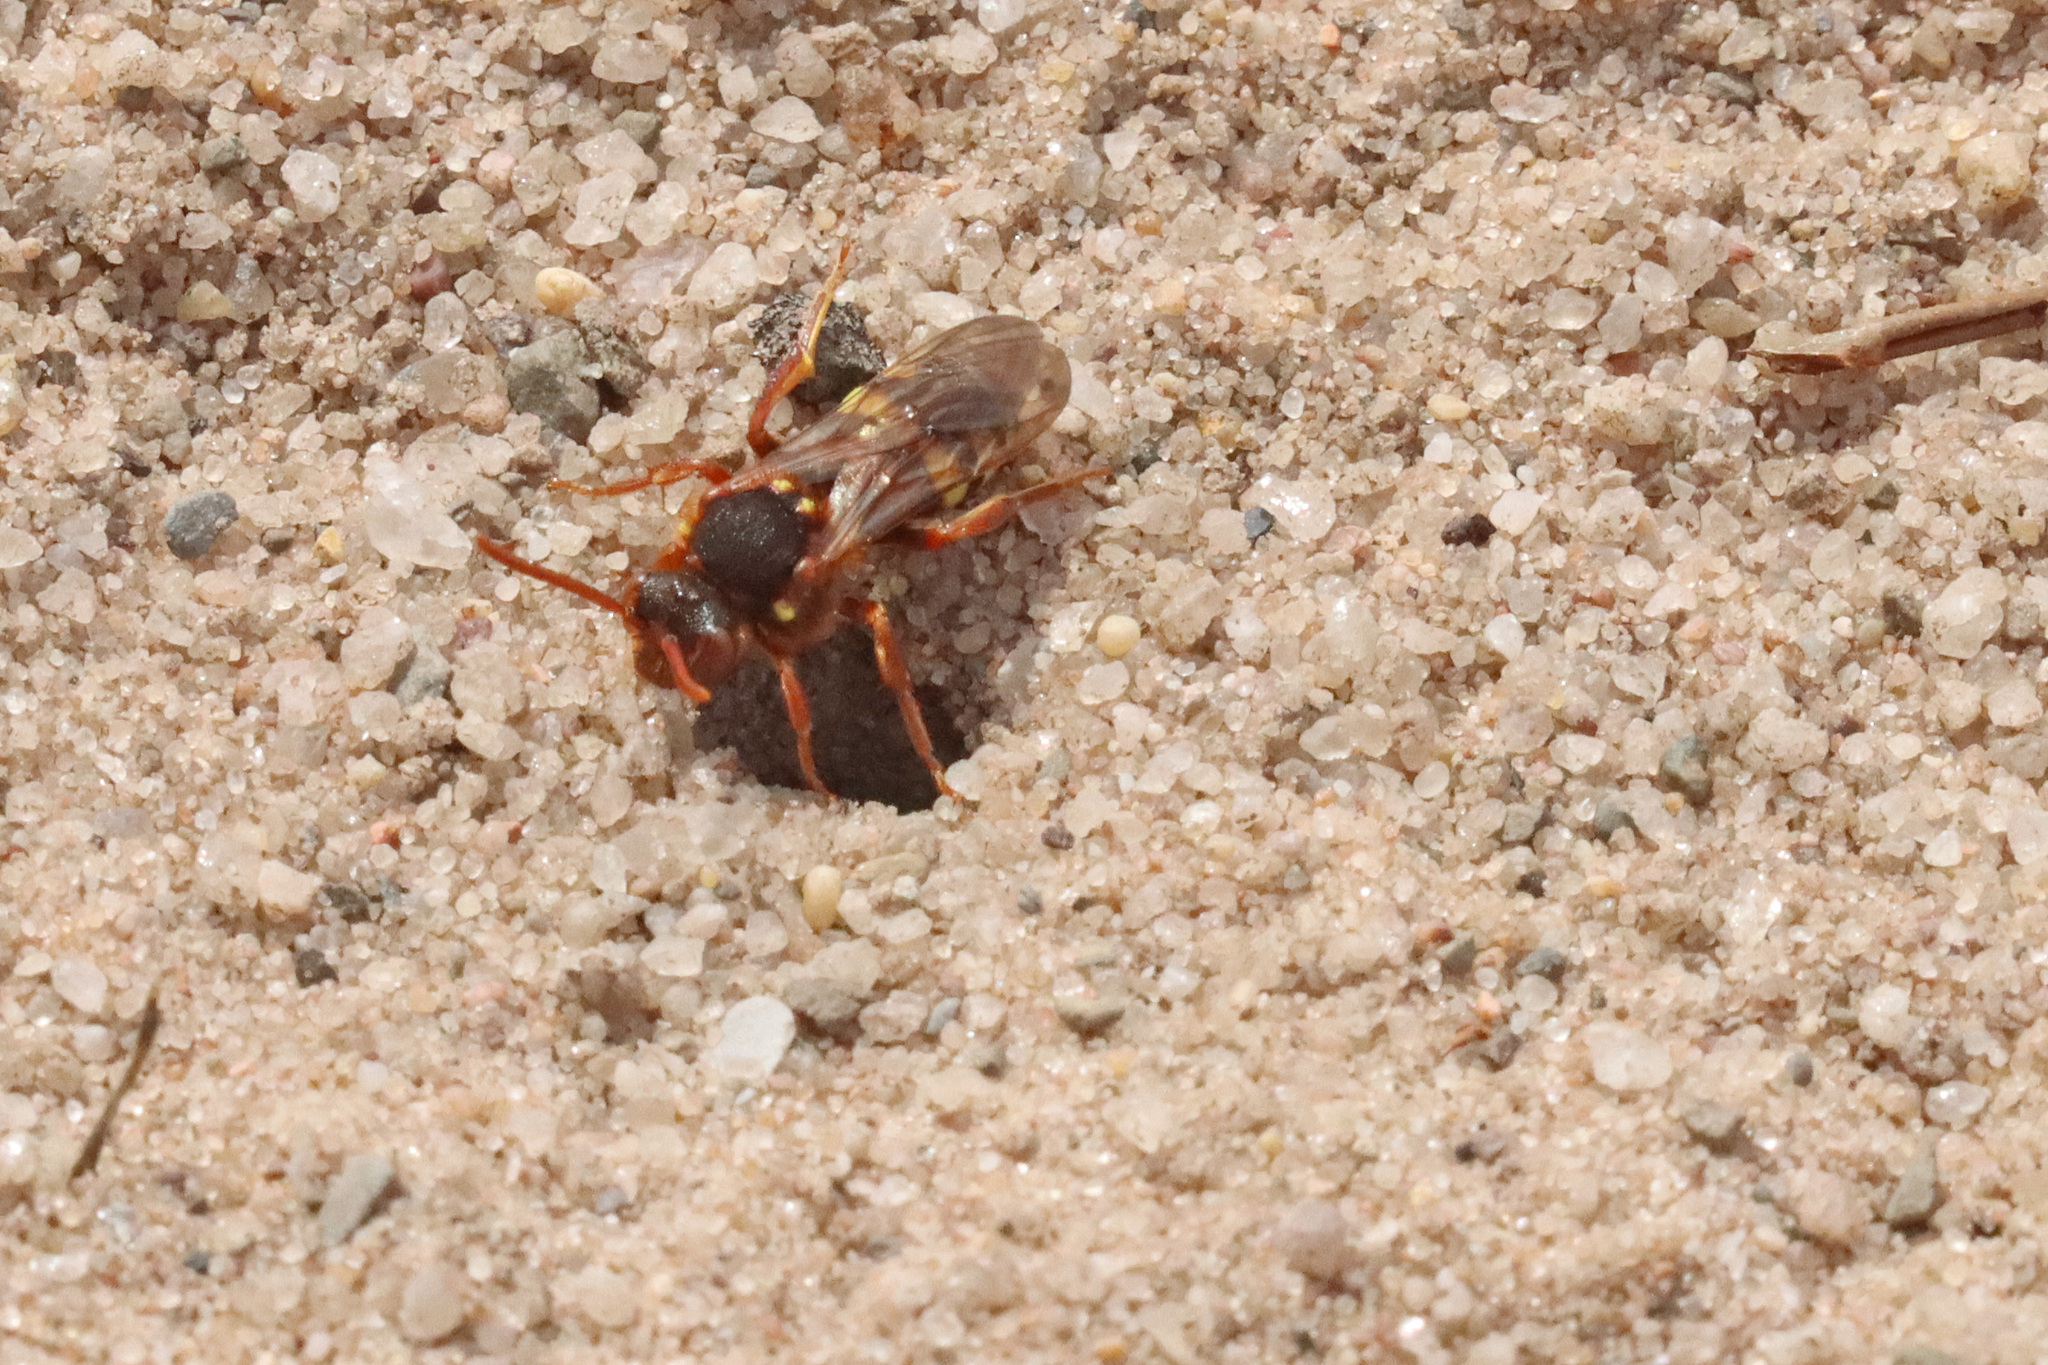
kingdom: Animalia
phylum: Arthropoda
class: Insecta
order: Hymenoptera
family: Apidae
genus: Nomada
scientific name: Nomada lathburiana
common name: Lathbury's nomad bee
